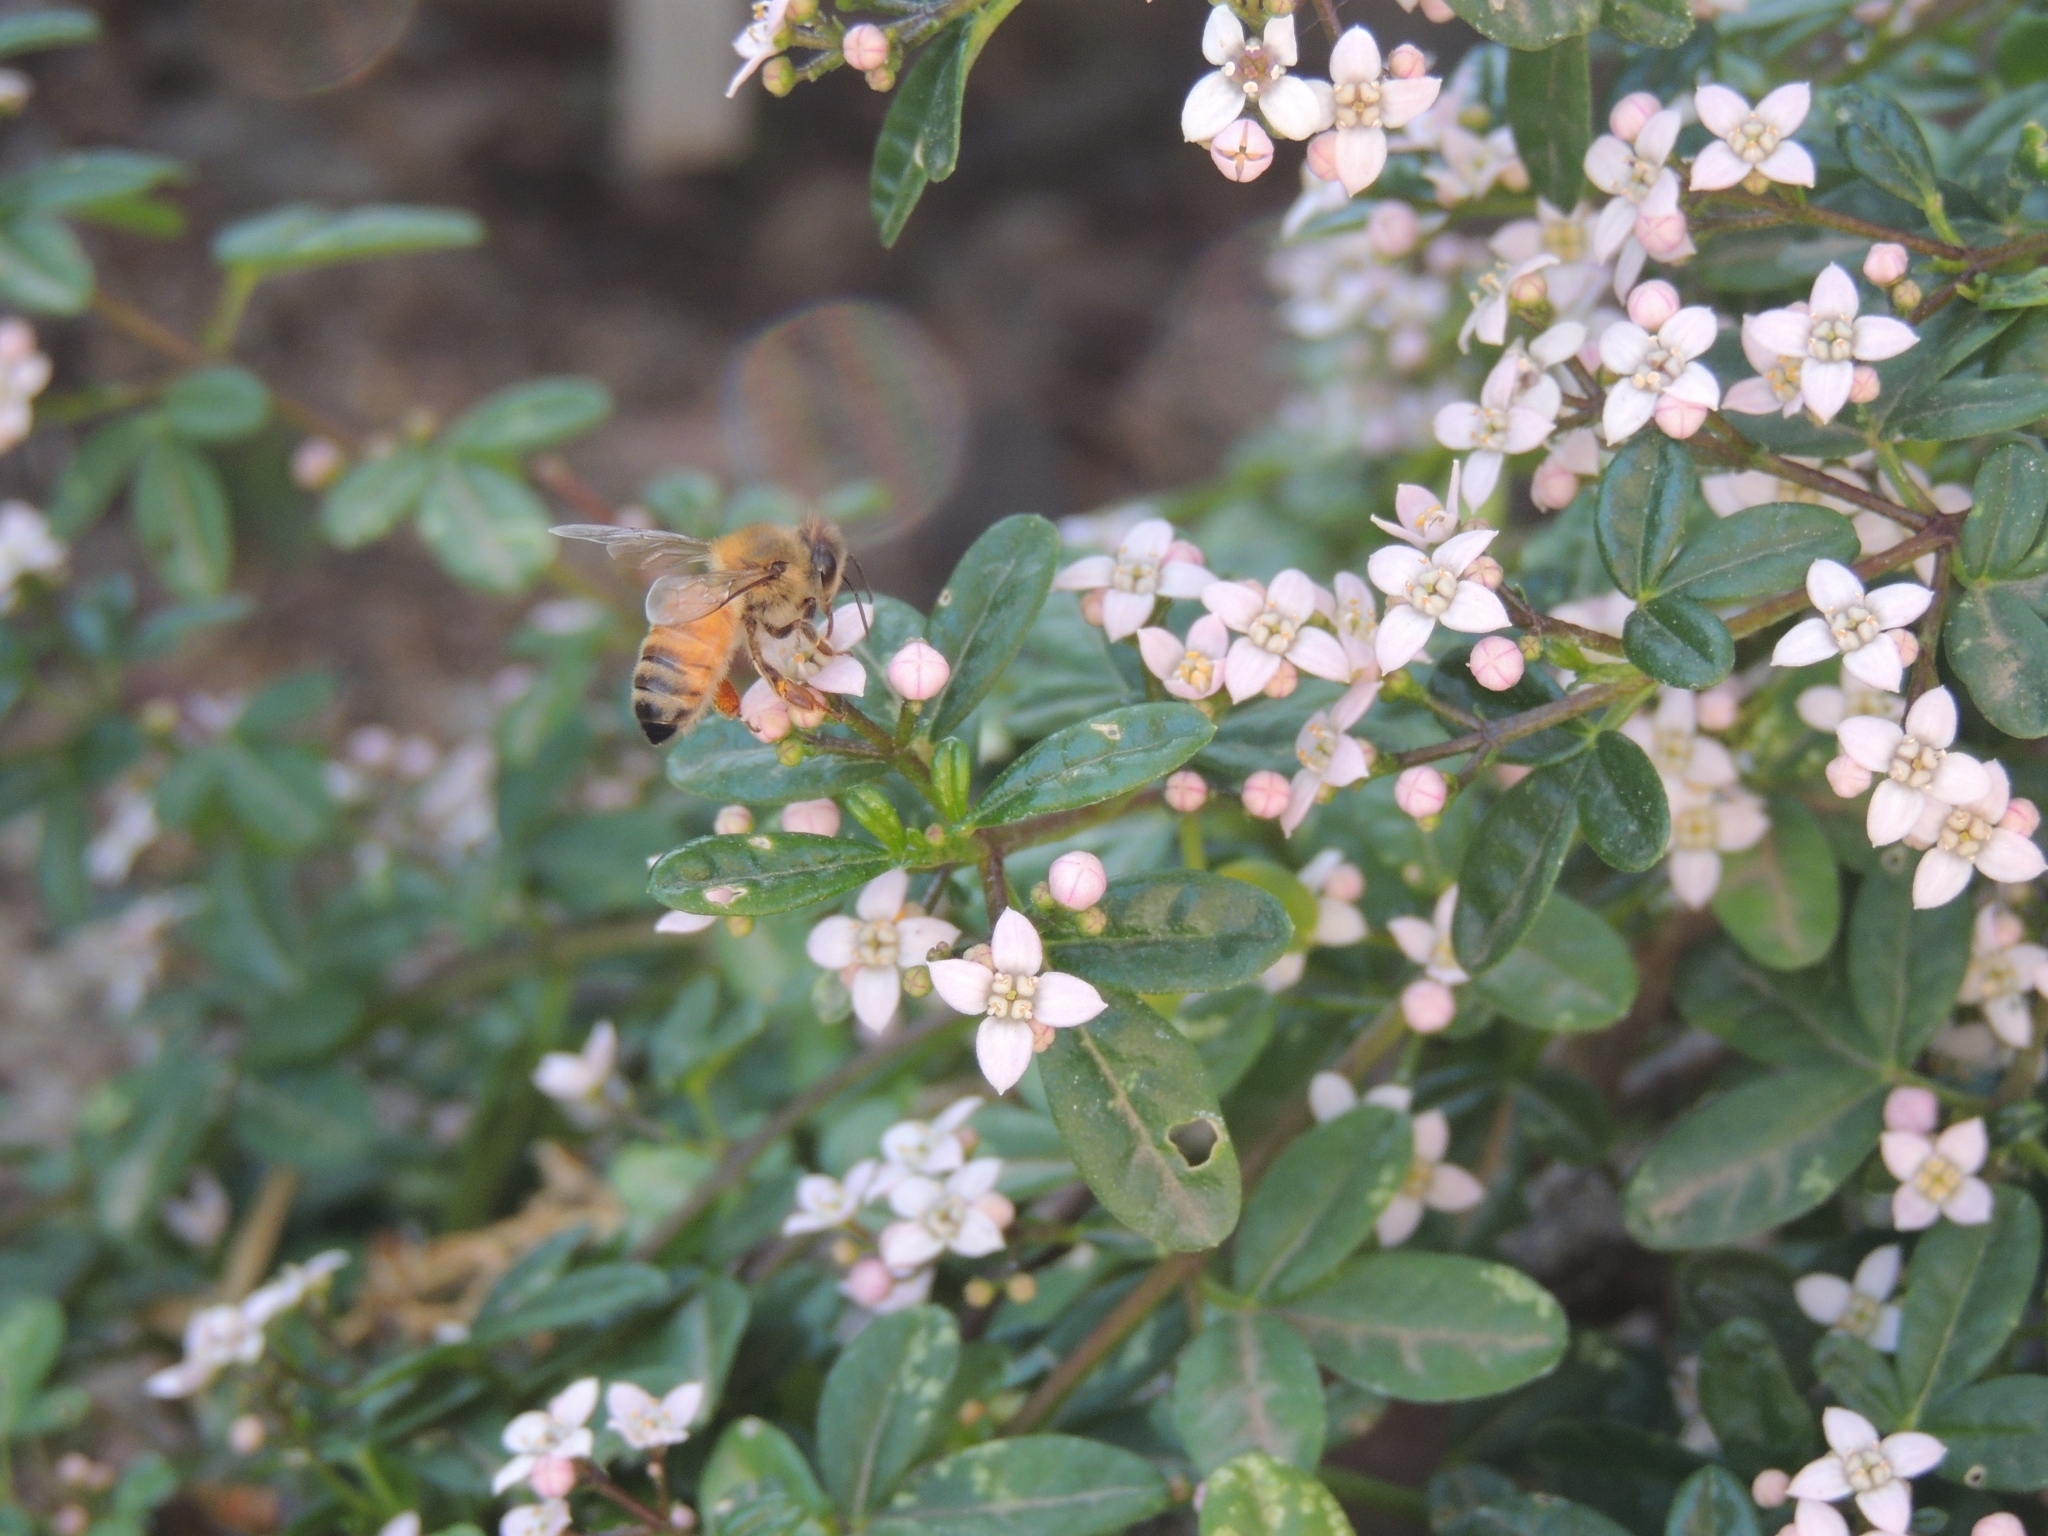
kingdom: Animalia
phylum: Arthropoda
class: Insecta
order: Hymenoptera
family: Apidae
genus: Apis
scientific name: Apis mellifera
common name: Honey bee
